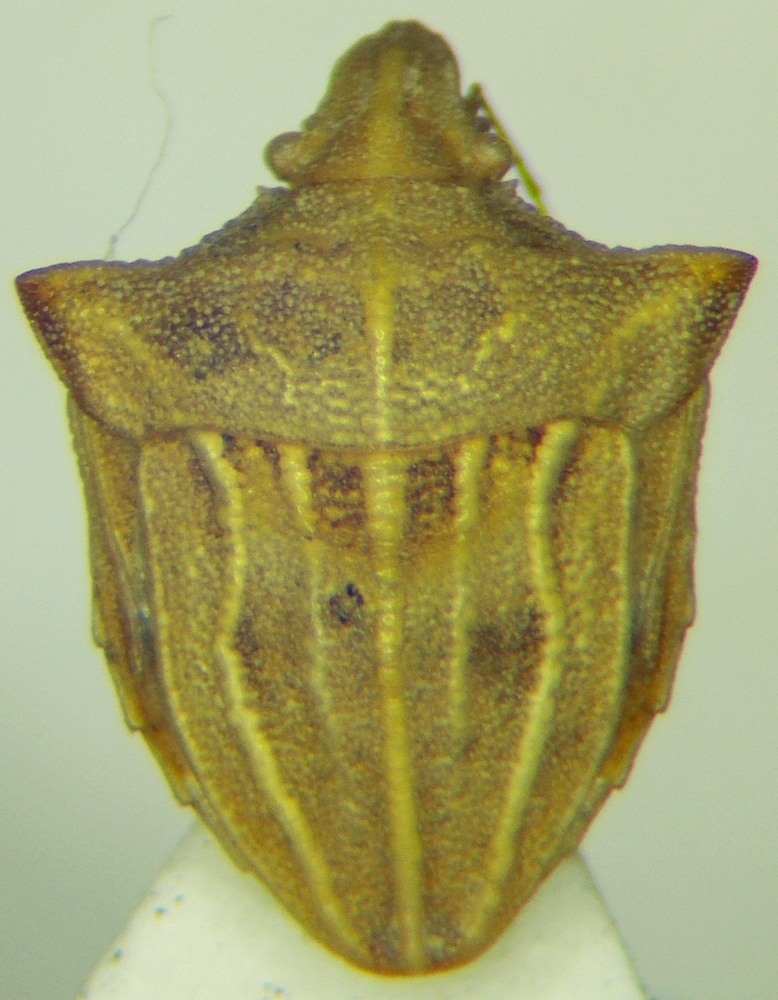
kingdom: Animalia
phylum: Arthropoda
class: Insecta
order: Hemiptera
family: Pentatomidae
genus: Ancyrosoma
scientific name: Ancyrosoma leucogrammes
